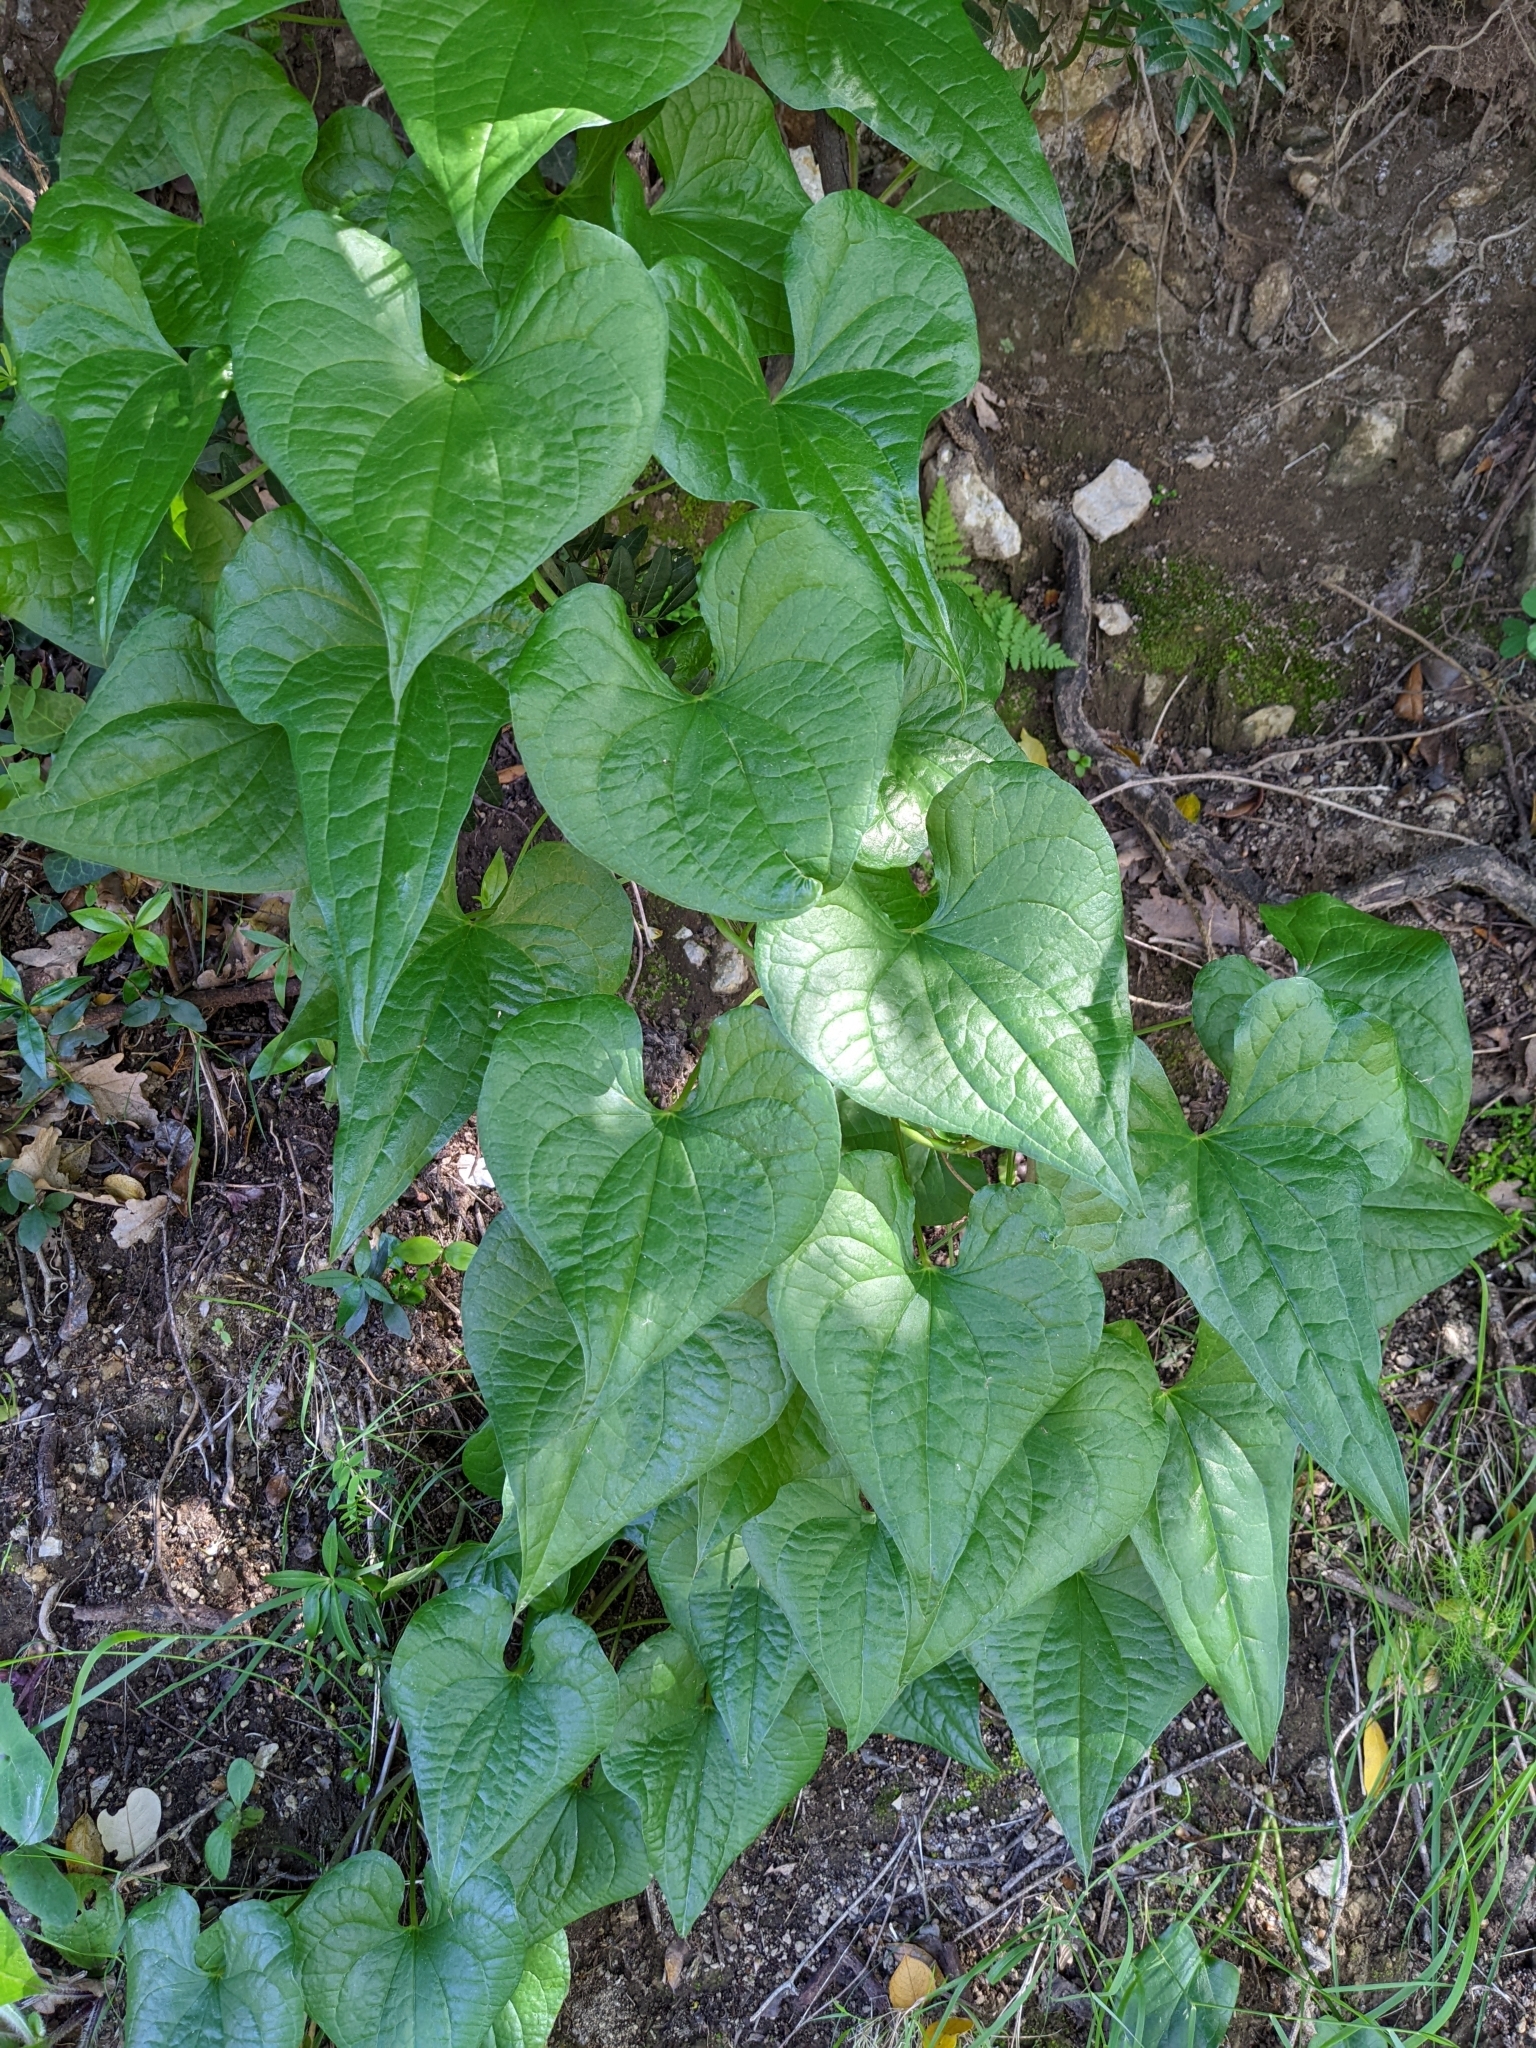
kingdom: Plantae
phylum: Tracheophyta
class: Liliopsida
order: Dioscoreales
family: Dioscoreaceae
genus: Dioscorea
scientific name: Dioscorea communis
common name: Black-bindweed
